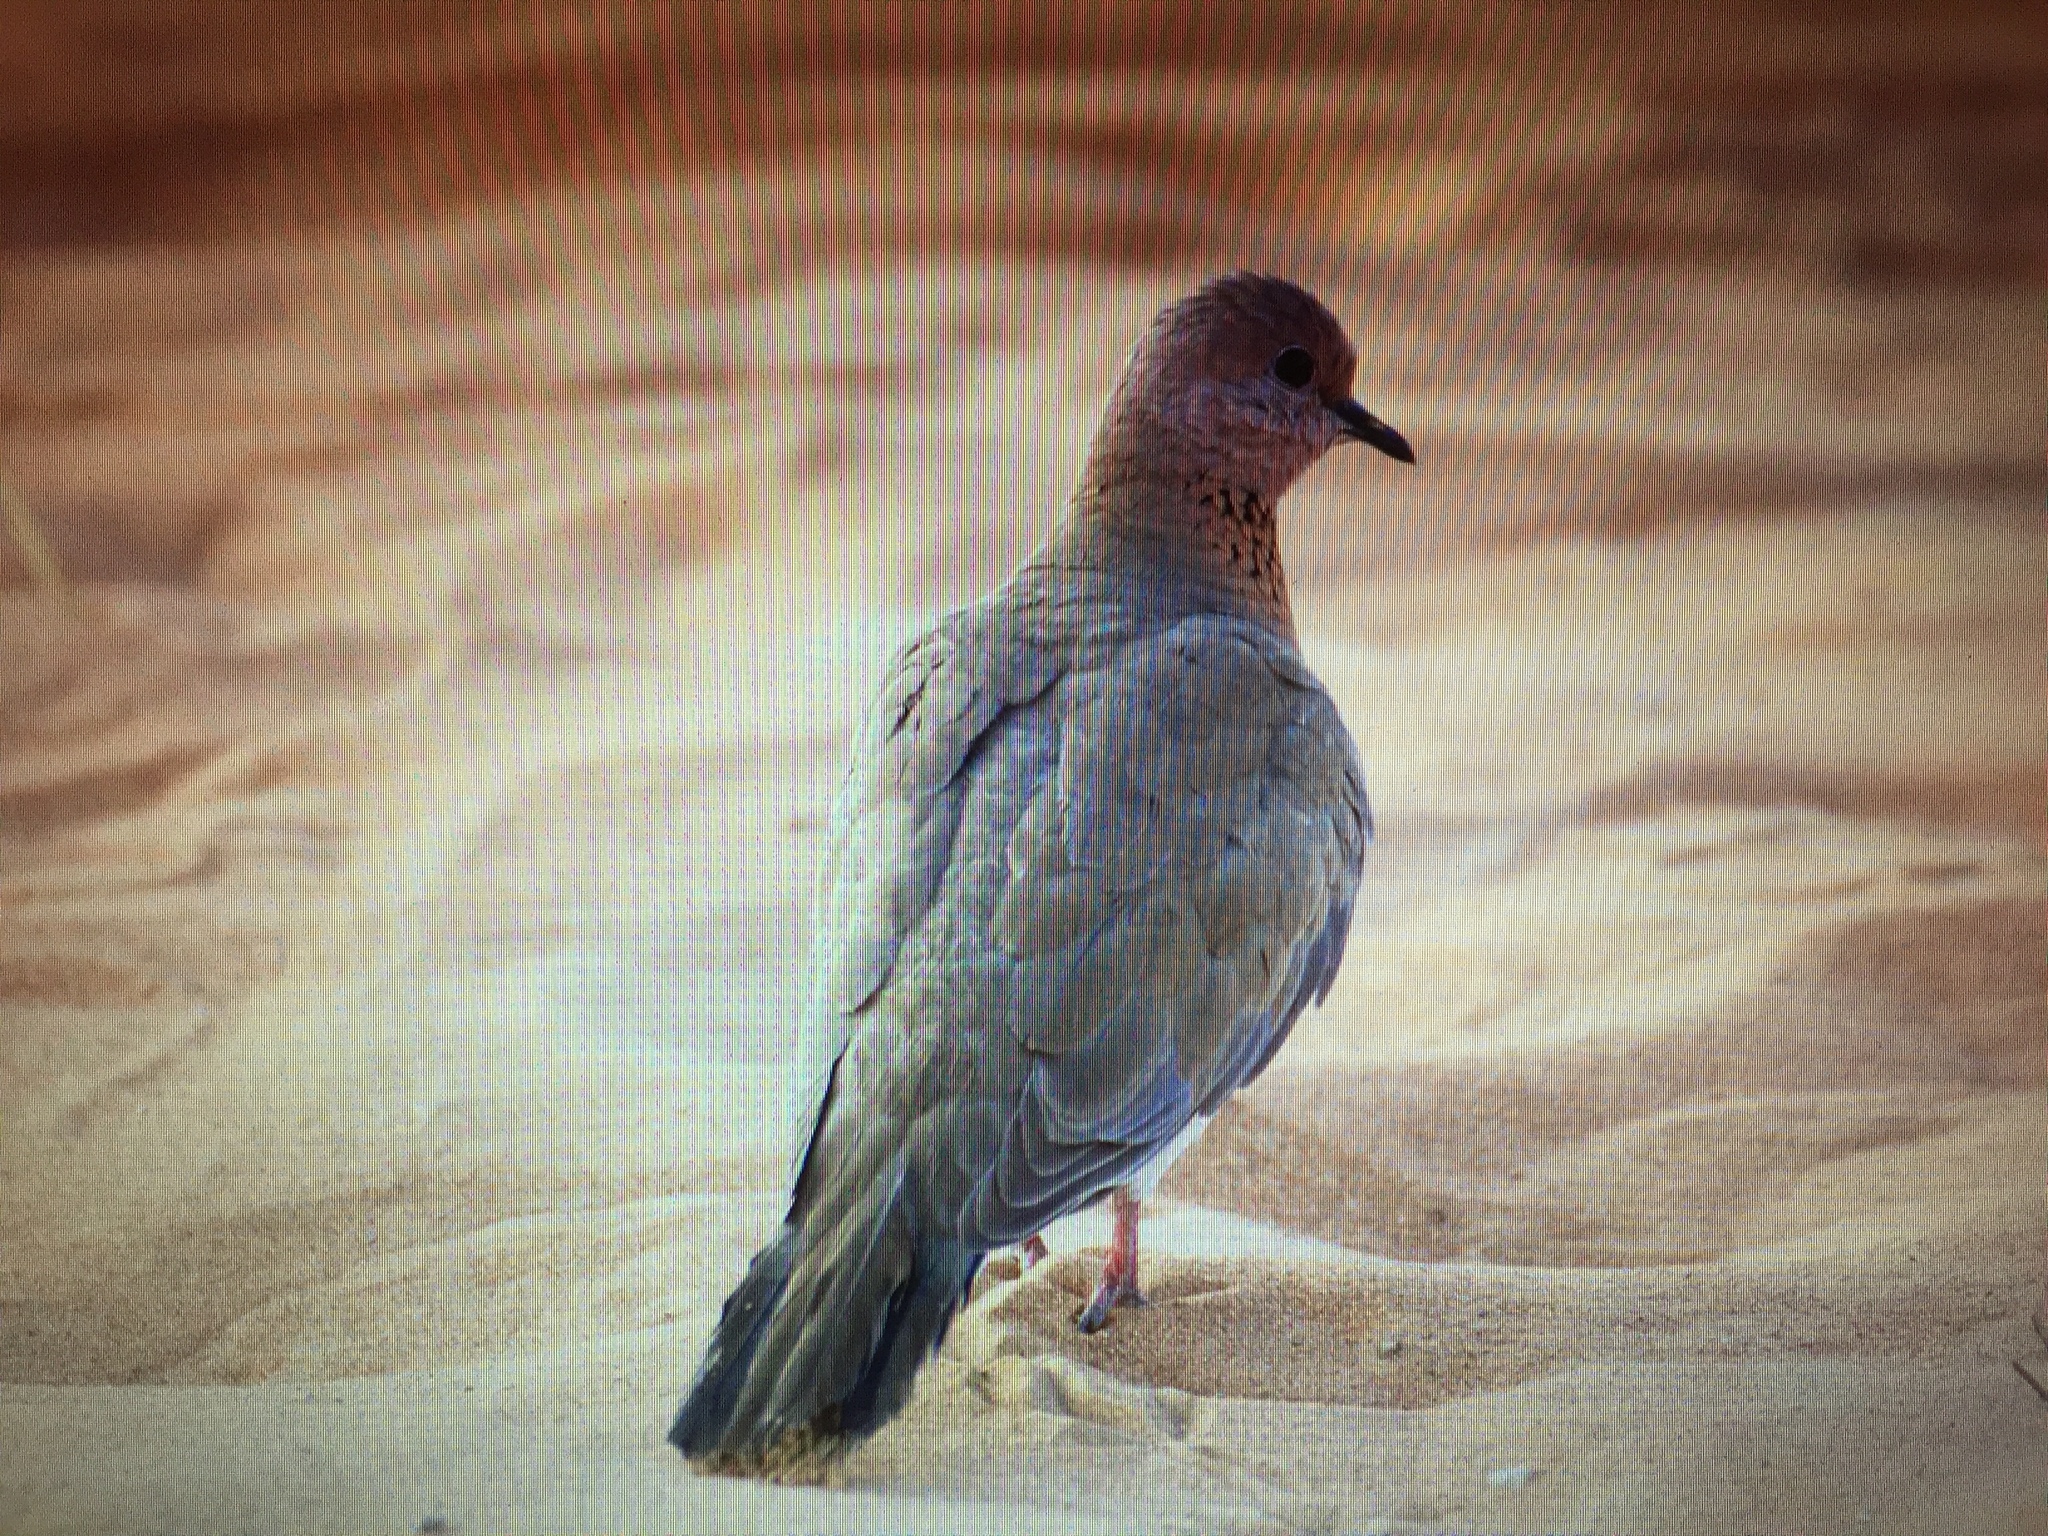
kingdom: Animalia
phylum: Chordata
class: Aves
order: Columbiformes
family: Columbidae
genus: Spilopelia
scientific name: Spilopelia senegalensis
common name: Laughing dove
